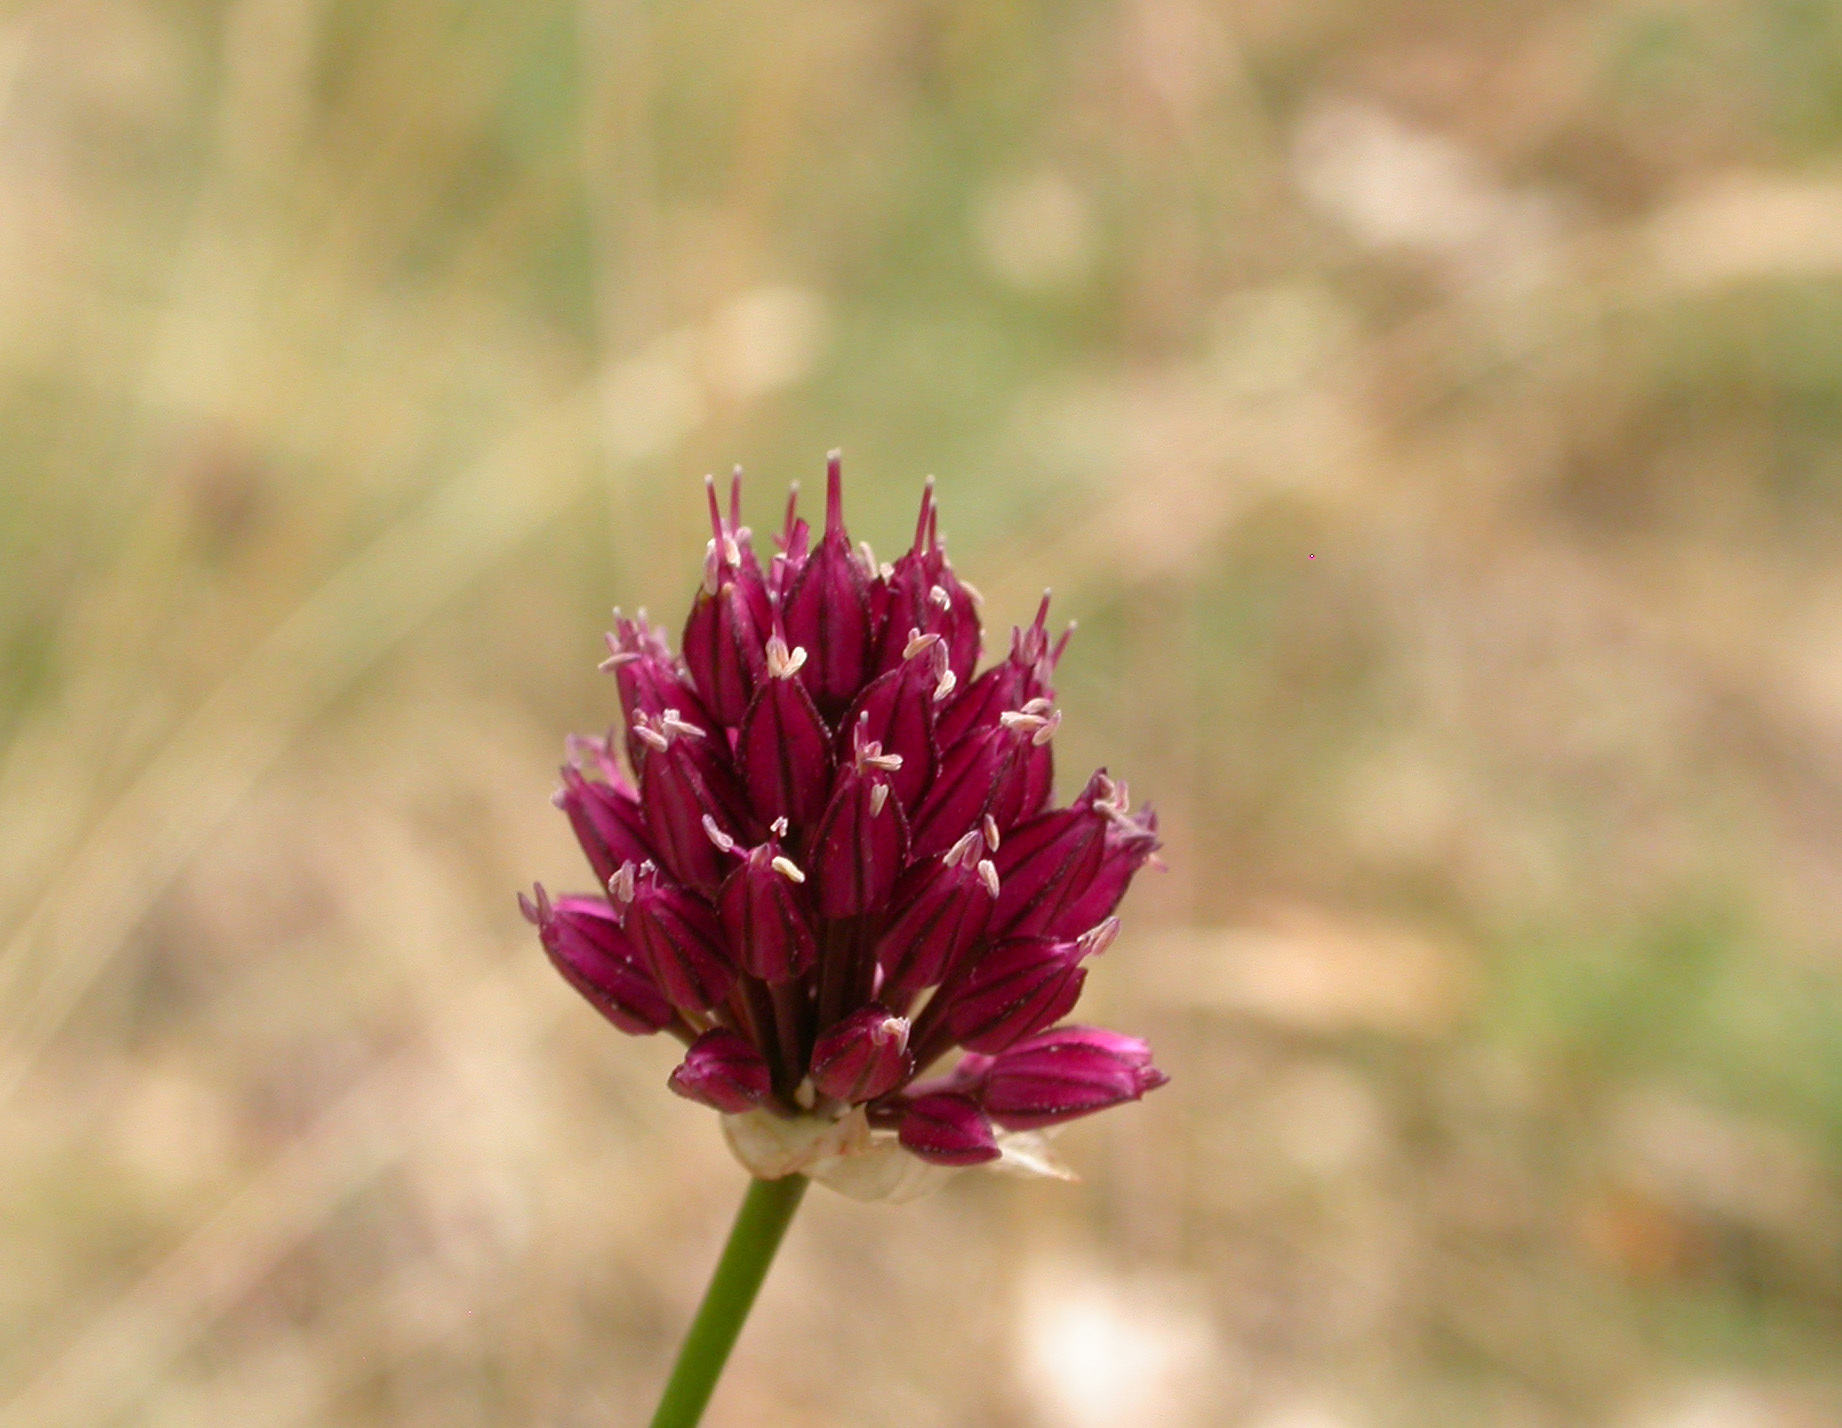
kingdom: Plantae
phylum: Tracheophyta
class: Liliopsida
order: Asparagales
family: Amaryllidaceae
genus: Allium
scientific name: Allium sphaerocephalon
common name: Round-headed leek
